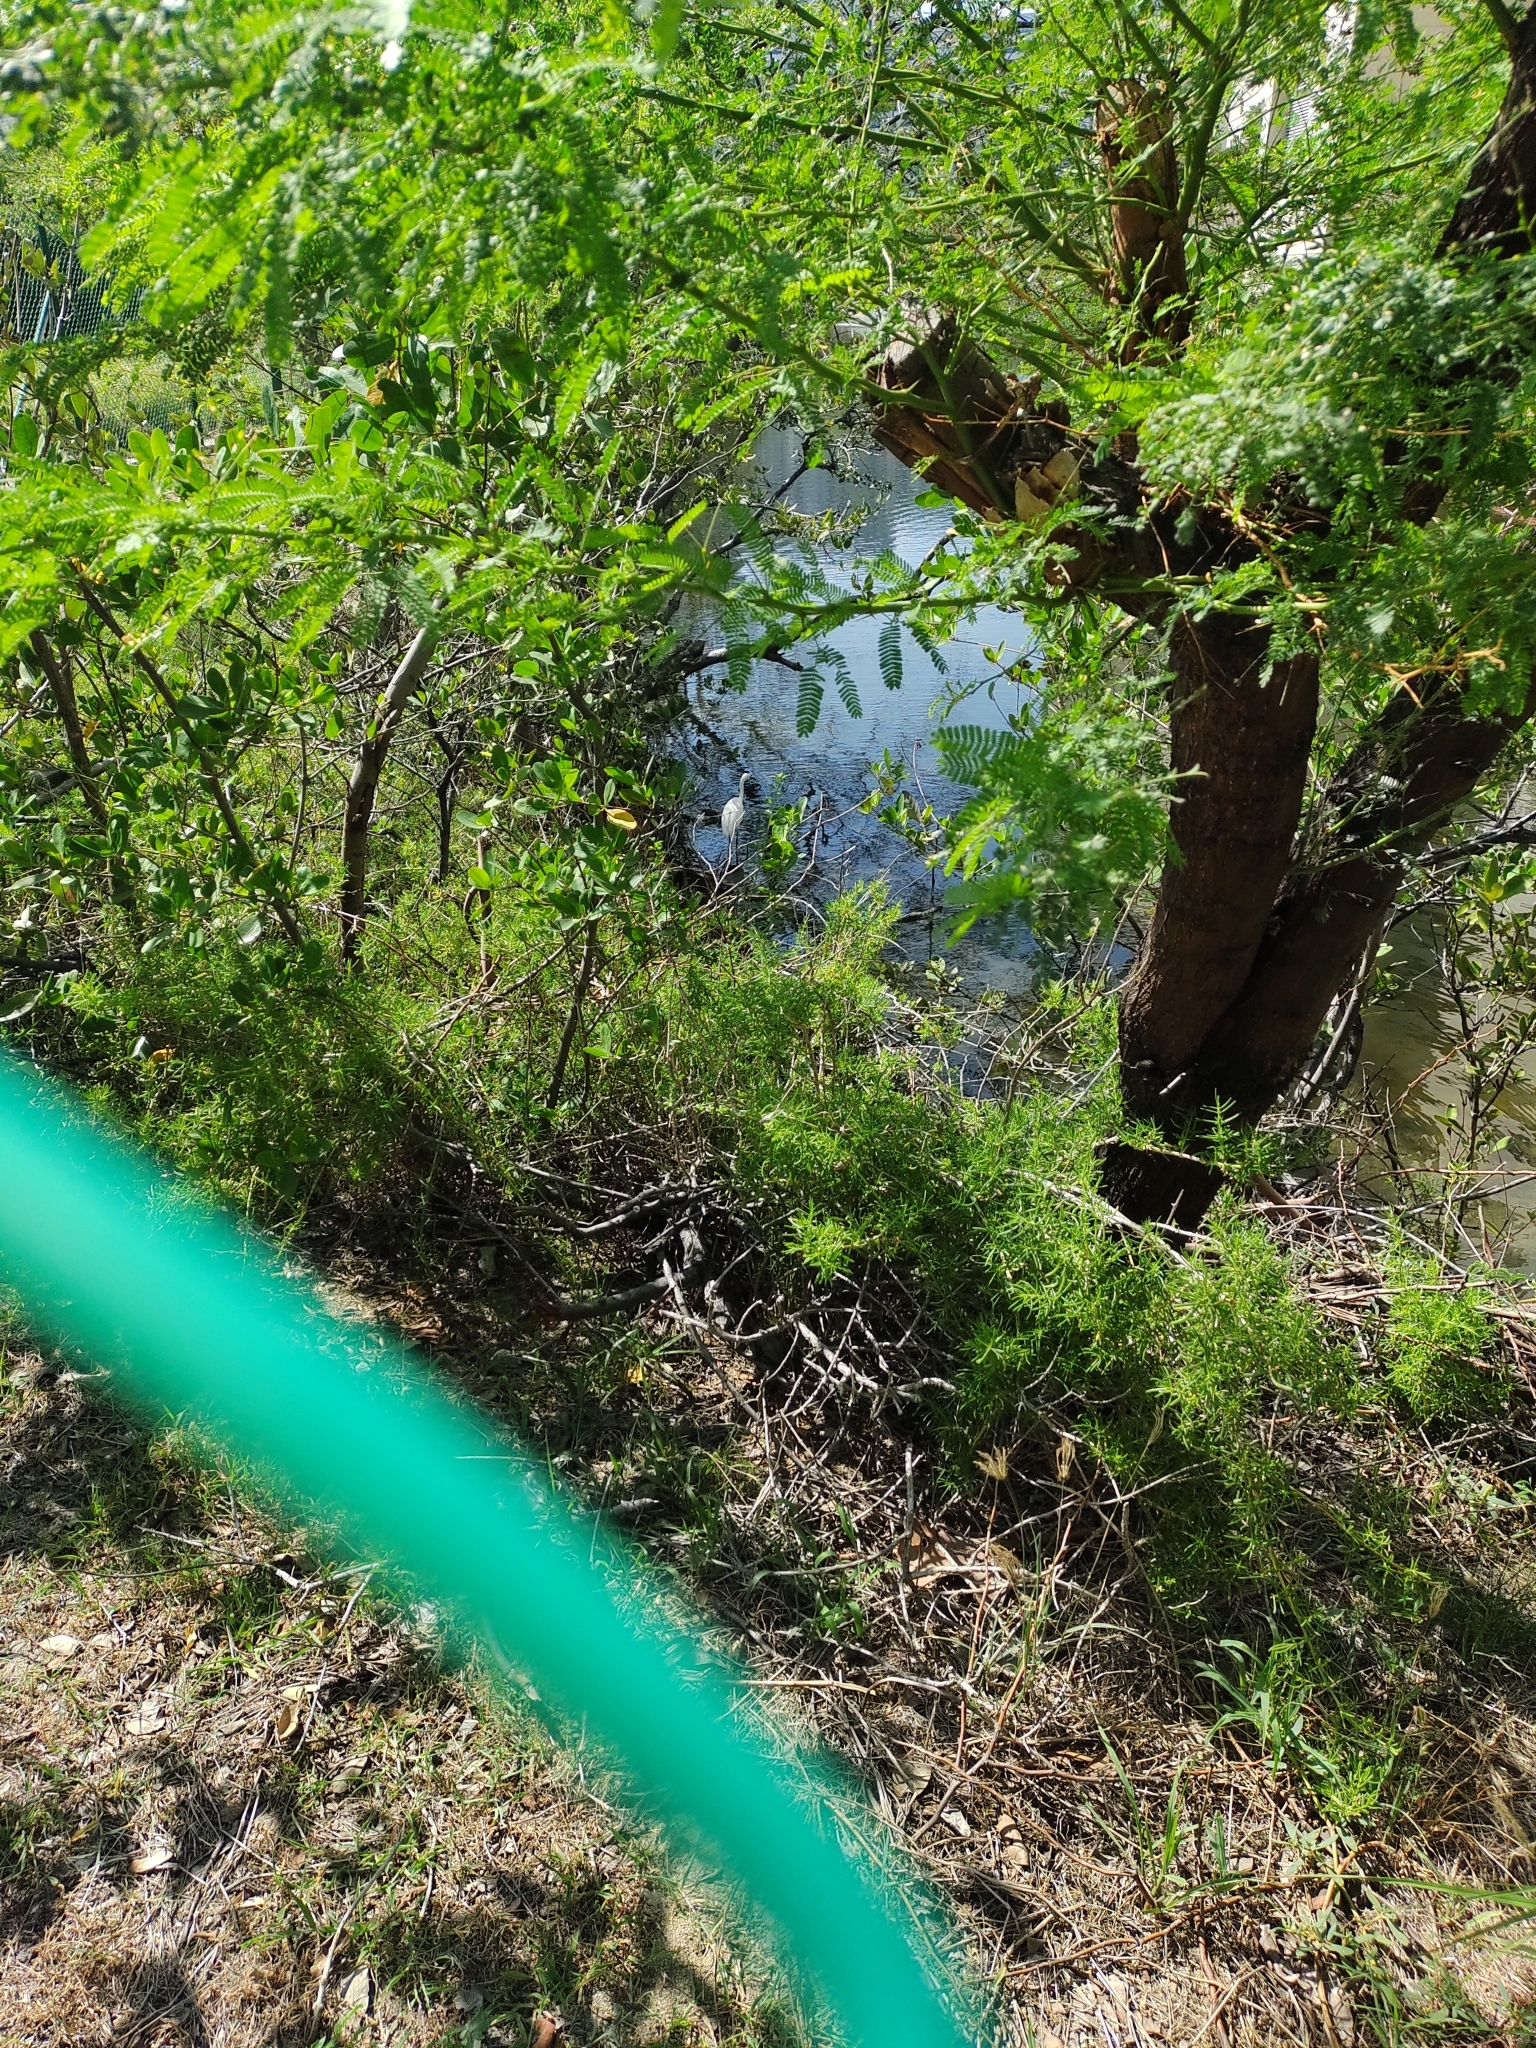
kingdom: Animalia
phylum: Chordata
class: Aves
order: Pelecaniformes
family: Ardeidae
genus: Egretta
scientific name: Egretta thula
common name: Snowy egret
